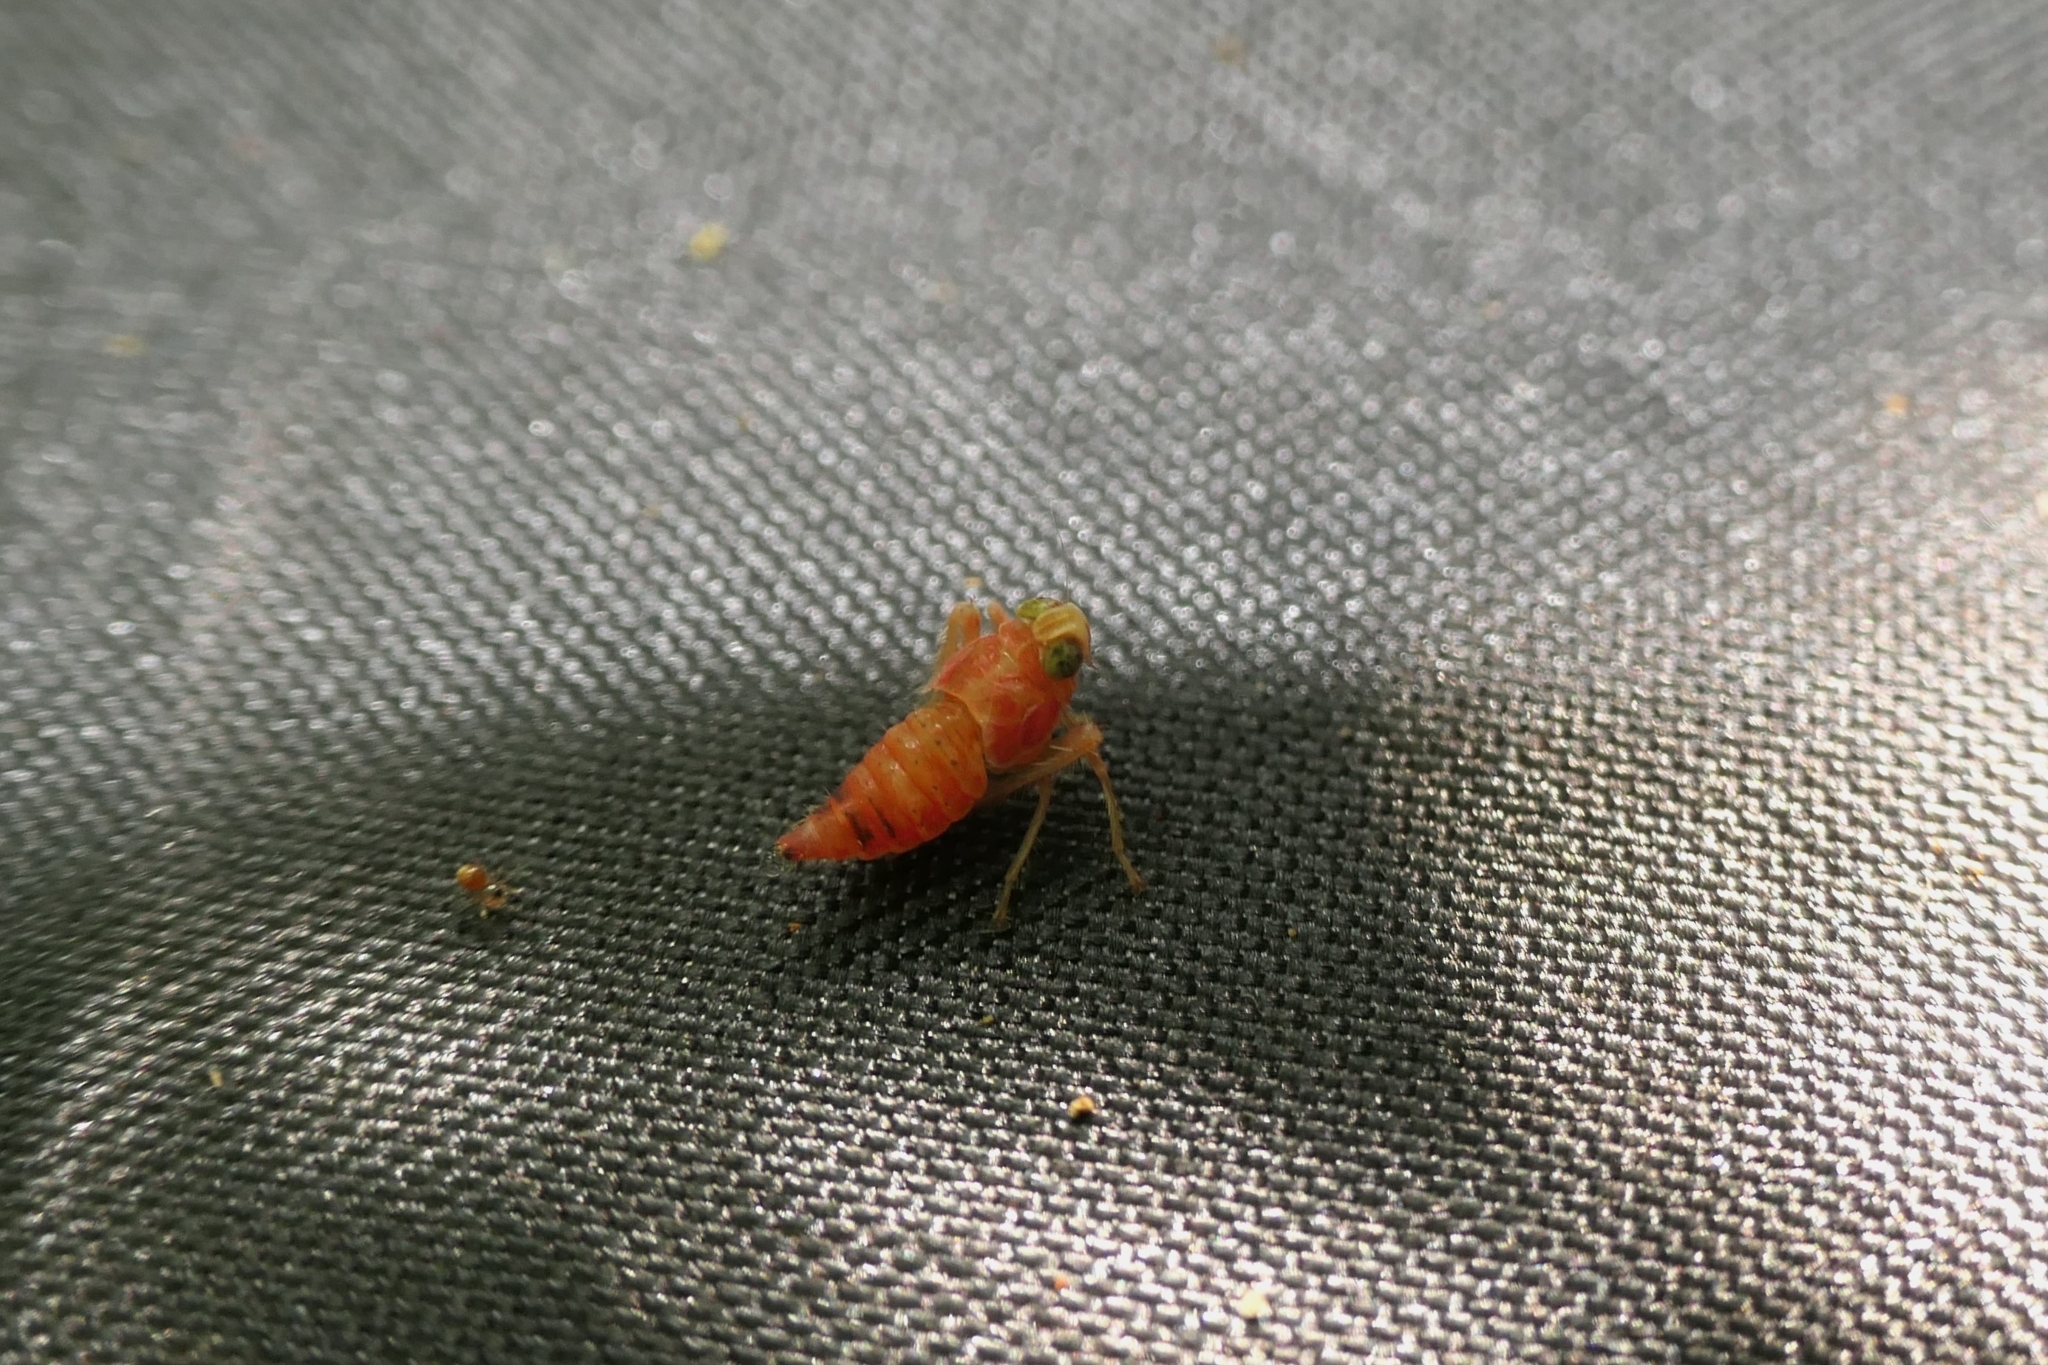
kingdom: Animalia
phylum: Arthropoda
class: Insecta
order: Hemiptera
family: Cicadellidae
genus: Jikradia
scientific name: Jikradia olitoria
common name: Coppery leafhopper
